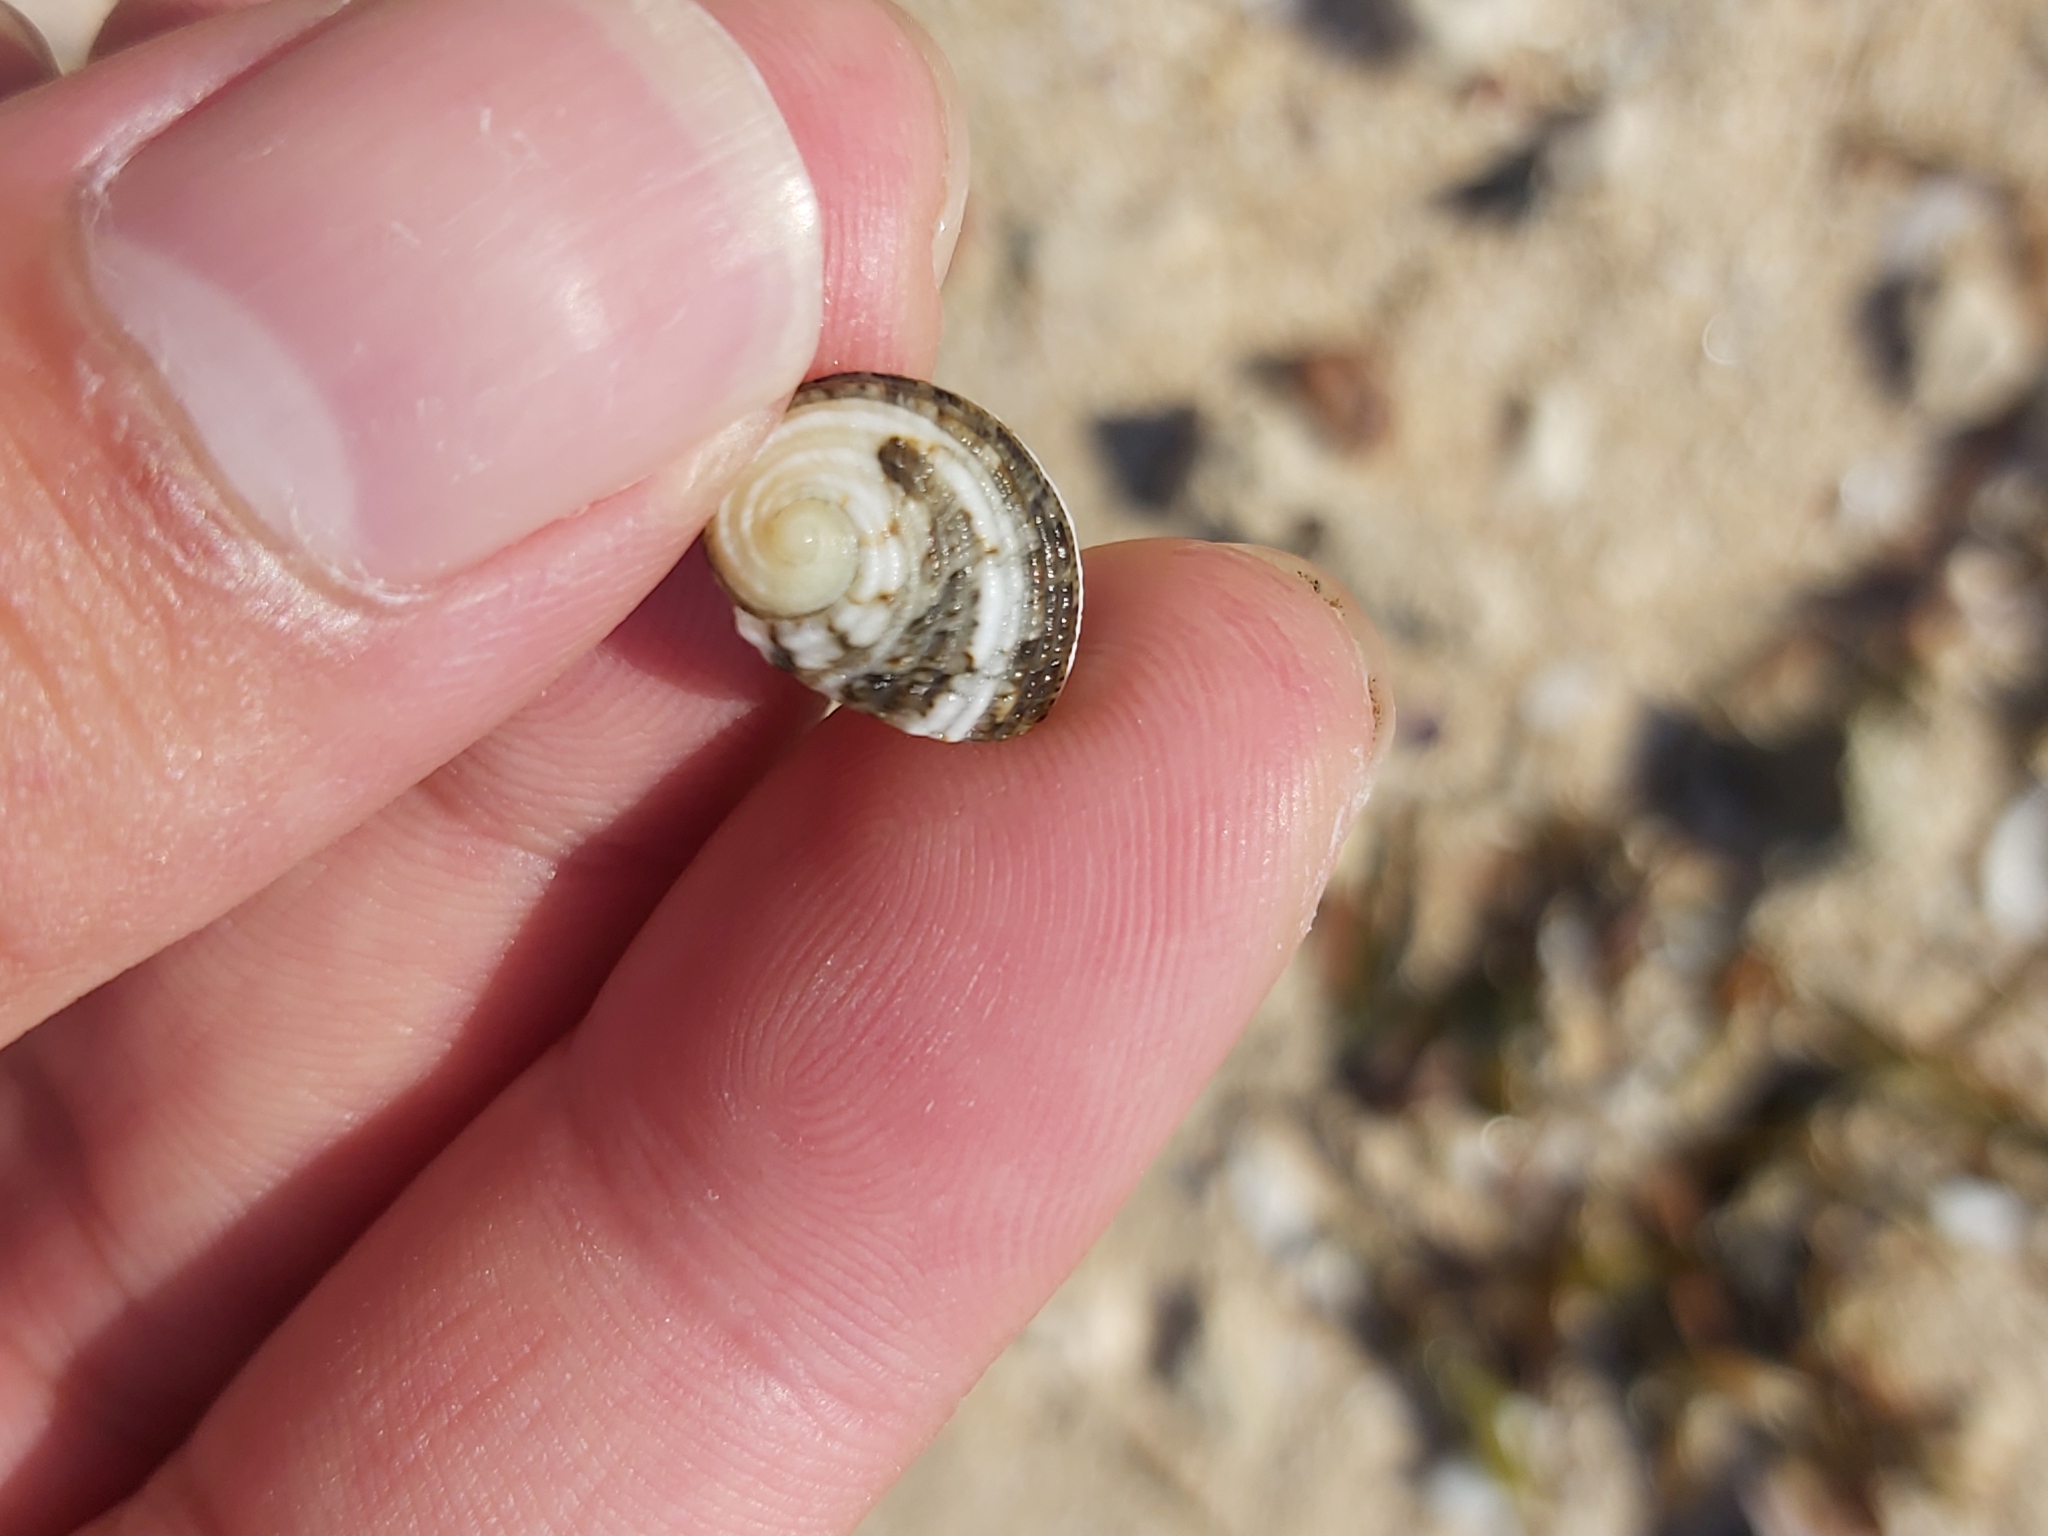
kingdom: Animalia
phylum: Mollusca
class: Gastropoda
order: Cycloneritida
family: Neritidae
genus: Nerita
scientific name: Nerita histrio
